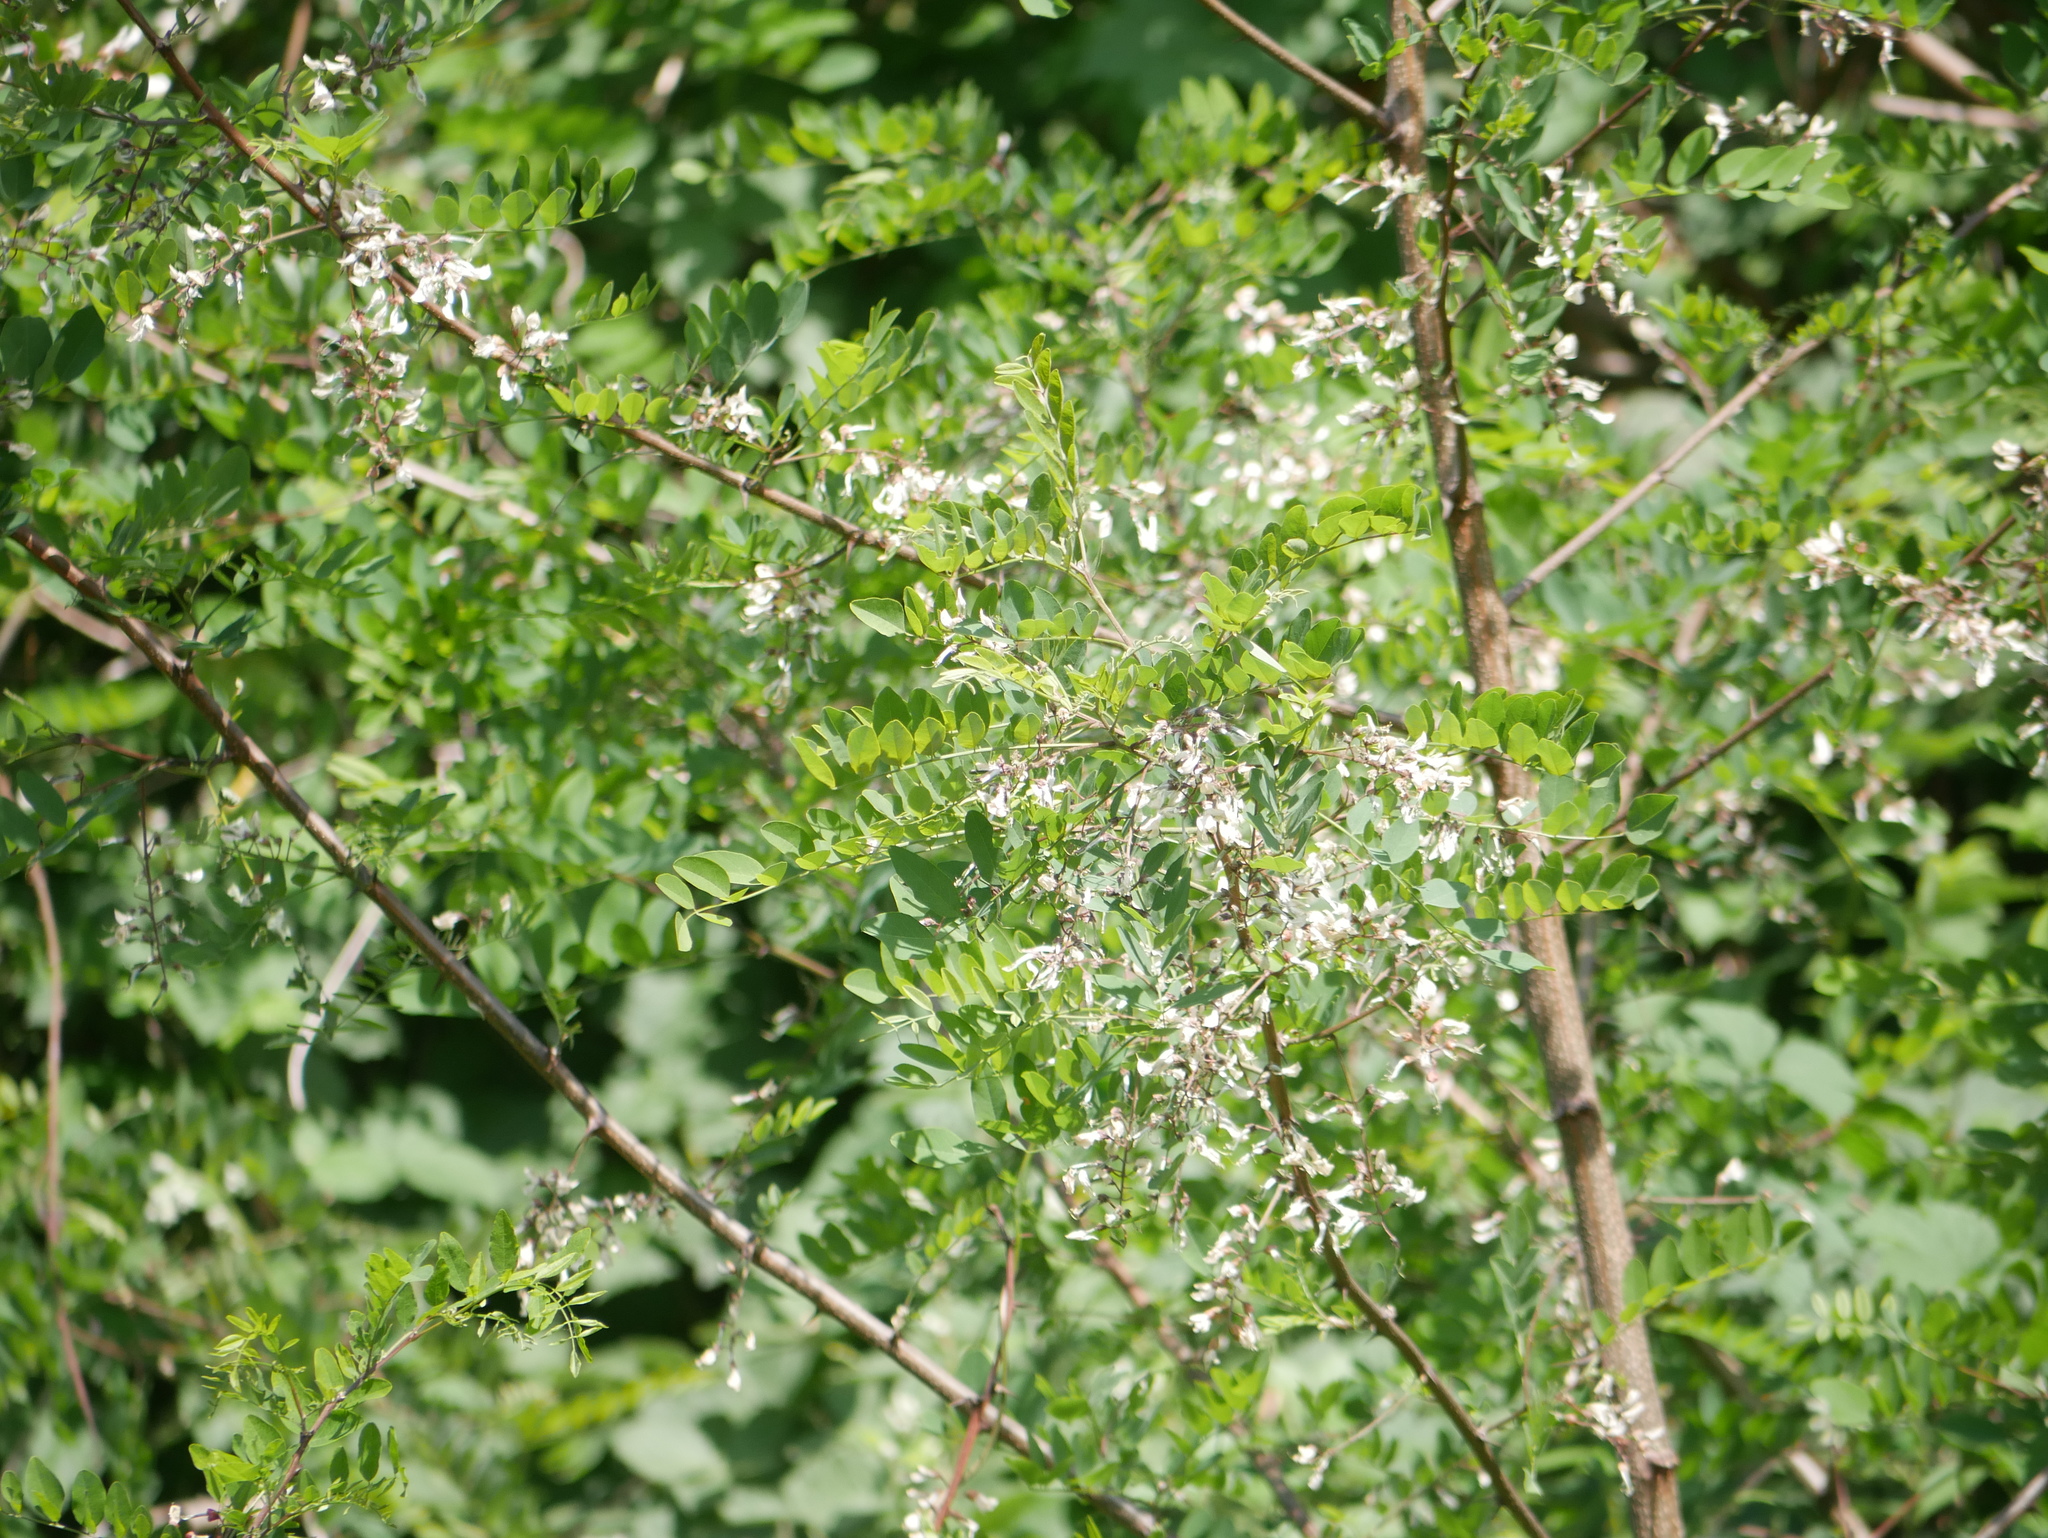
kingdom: Plantae
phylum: Tracheophyta
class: Magnoliopsida
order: Fabales
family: Fabaceae
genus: Robinia
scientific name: Robinia pseudoacacia
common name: Black locust
